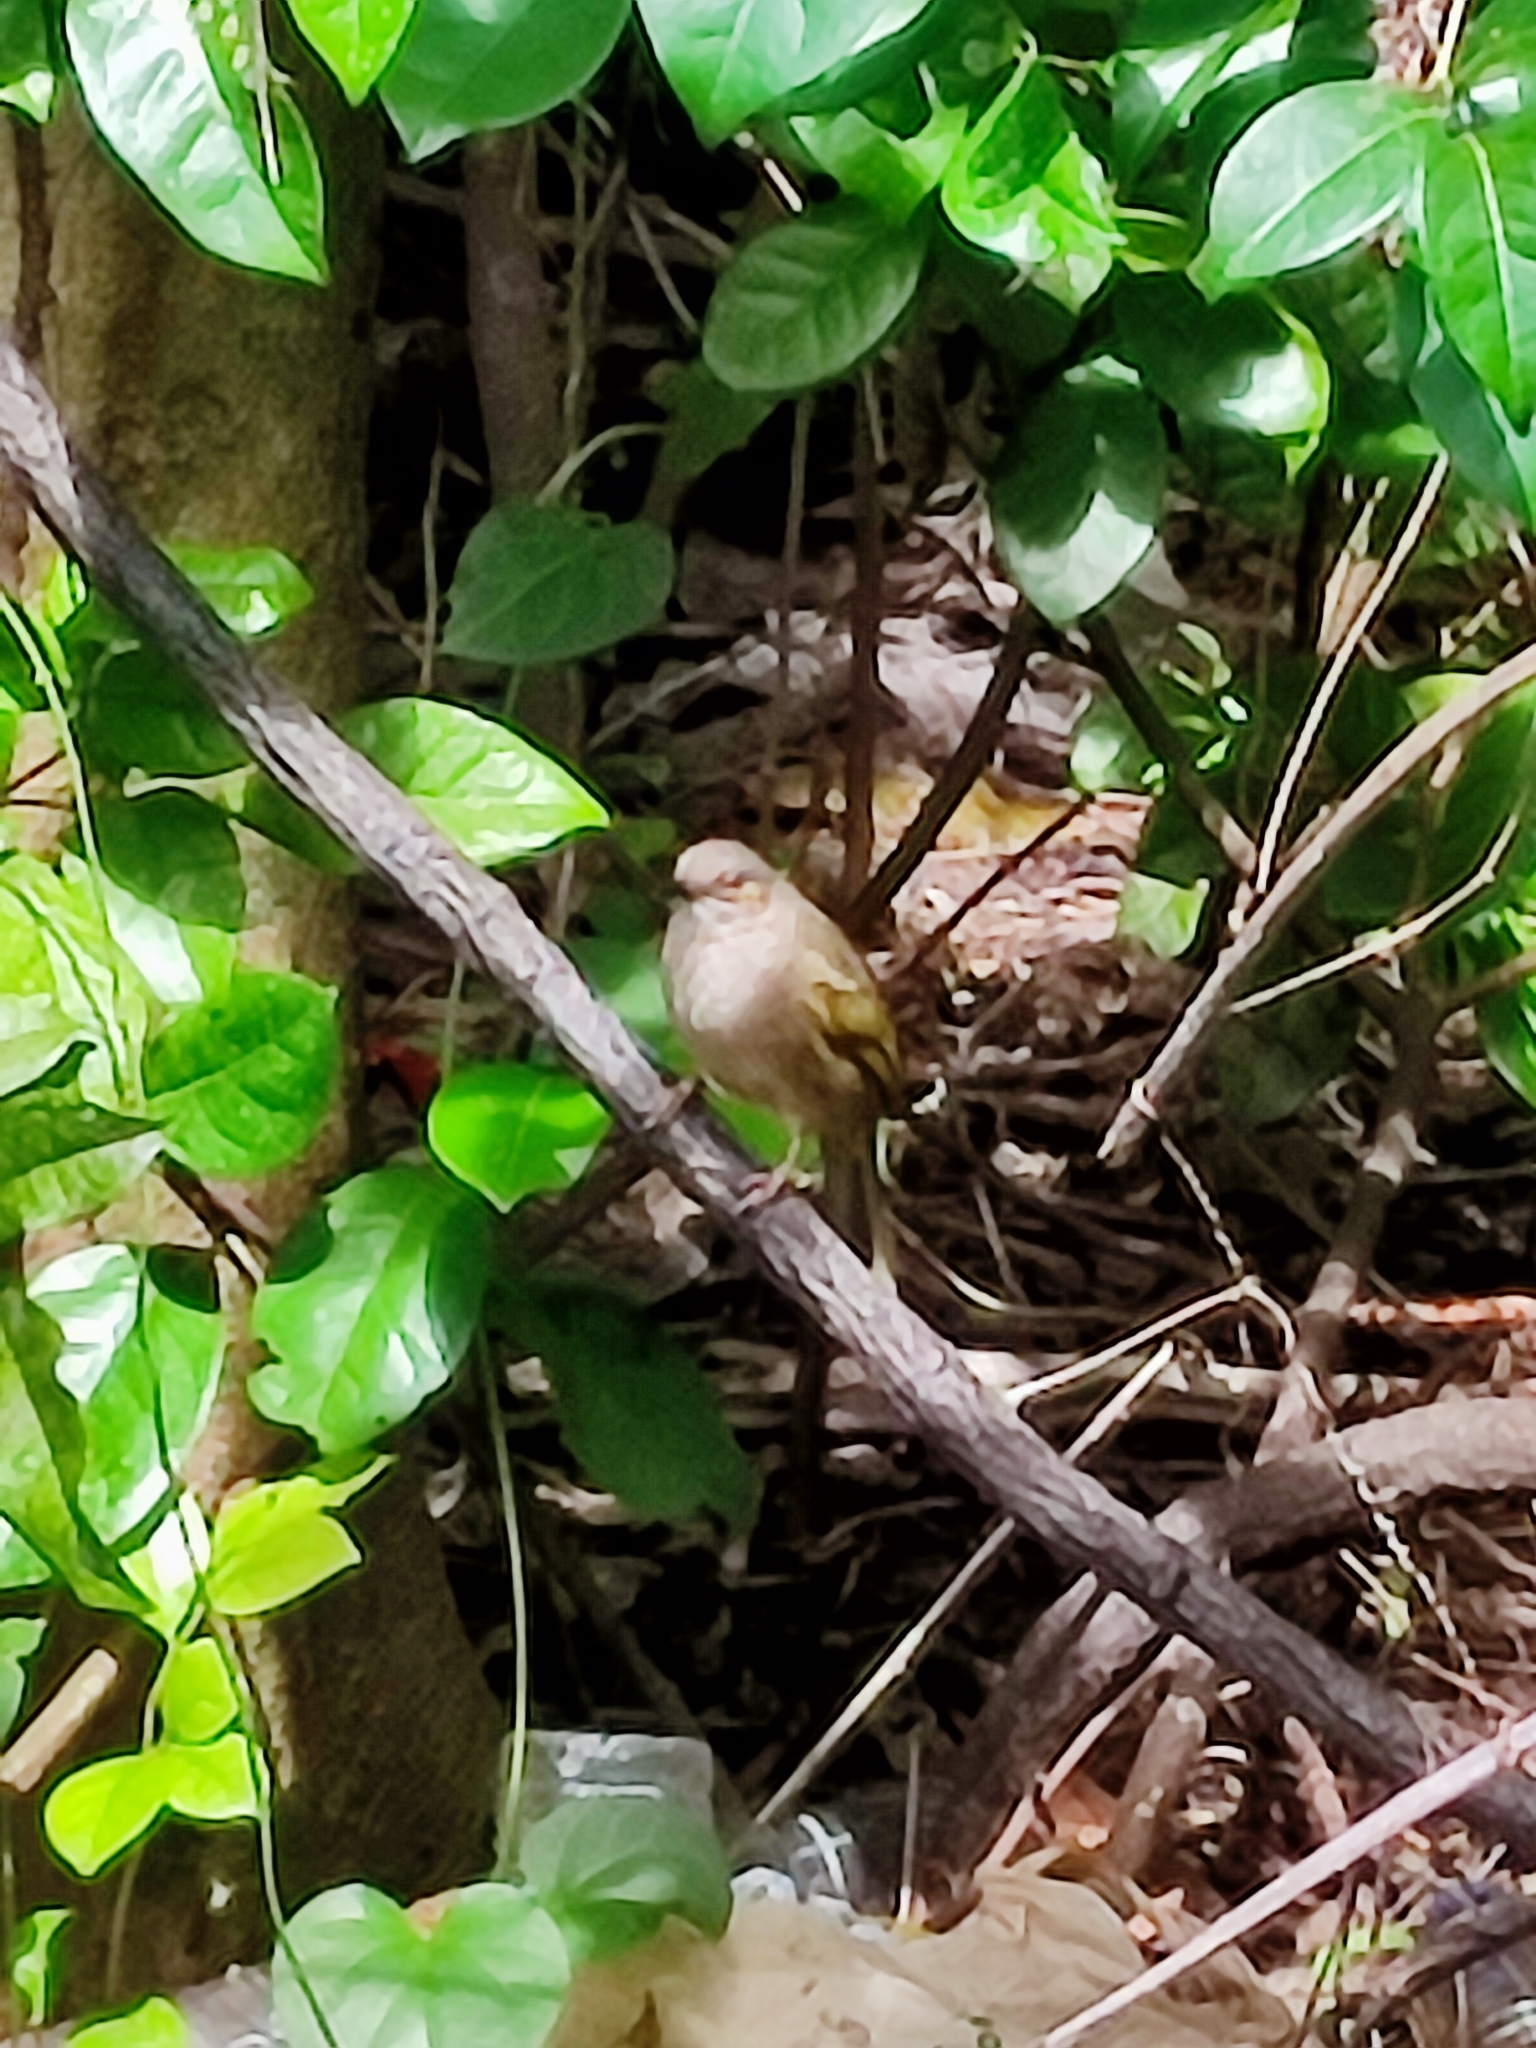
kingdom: Animalia
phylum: Chordata
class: Aves
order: Passeriformes
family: Pycnonotidae
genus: Pycnonotus
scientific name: Pycnonotus plumosus
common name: Olive-winged bulbul
